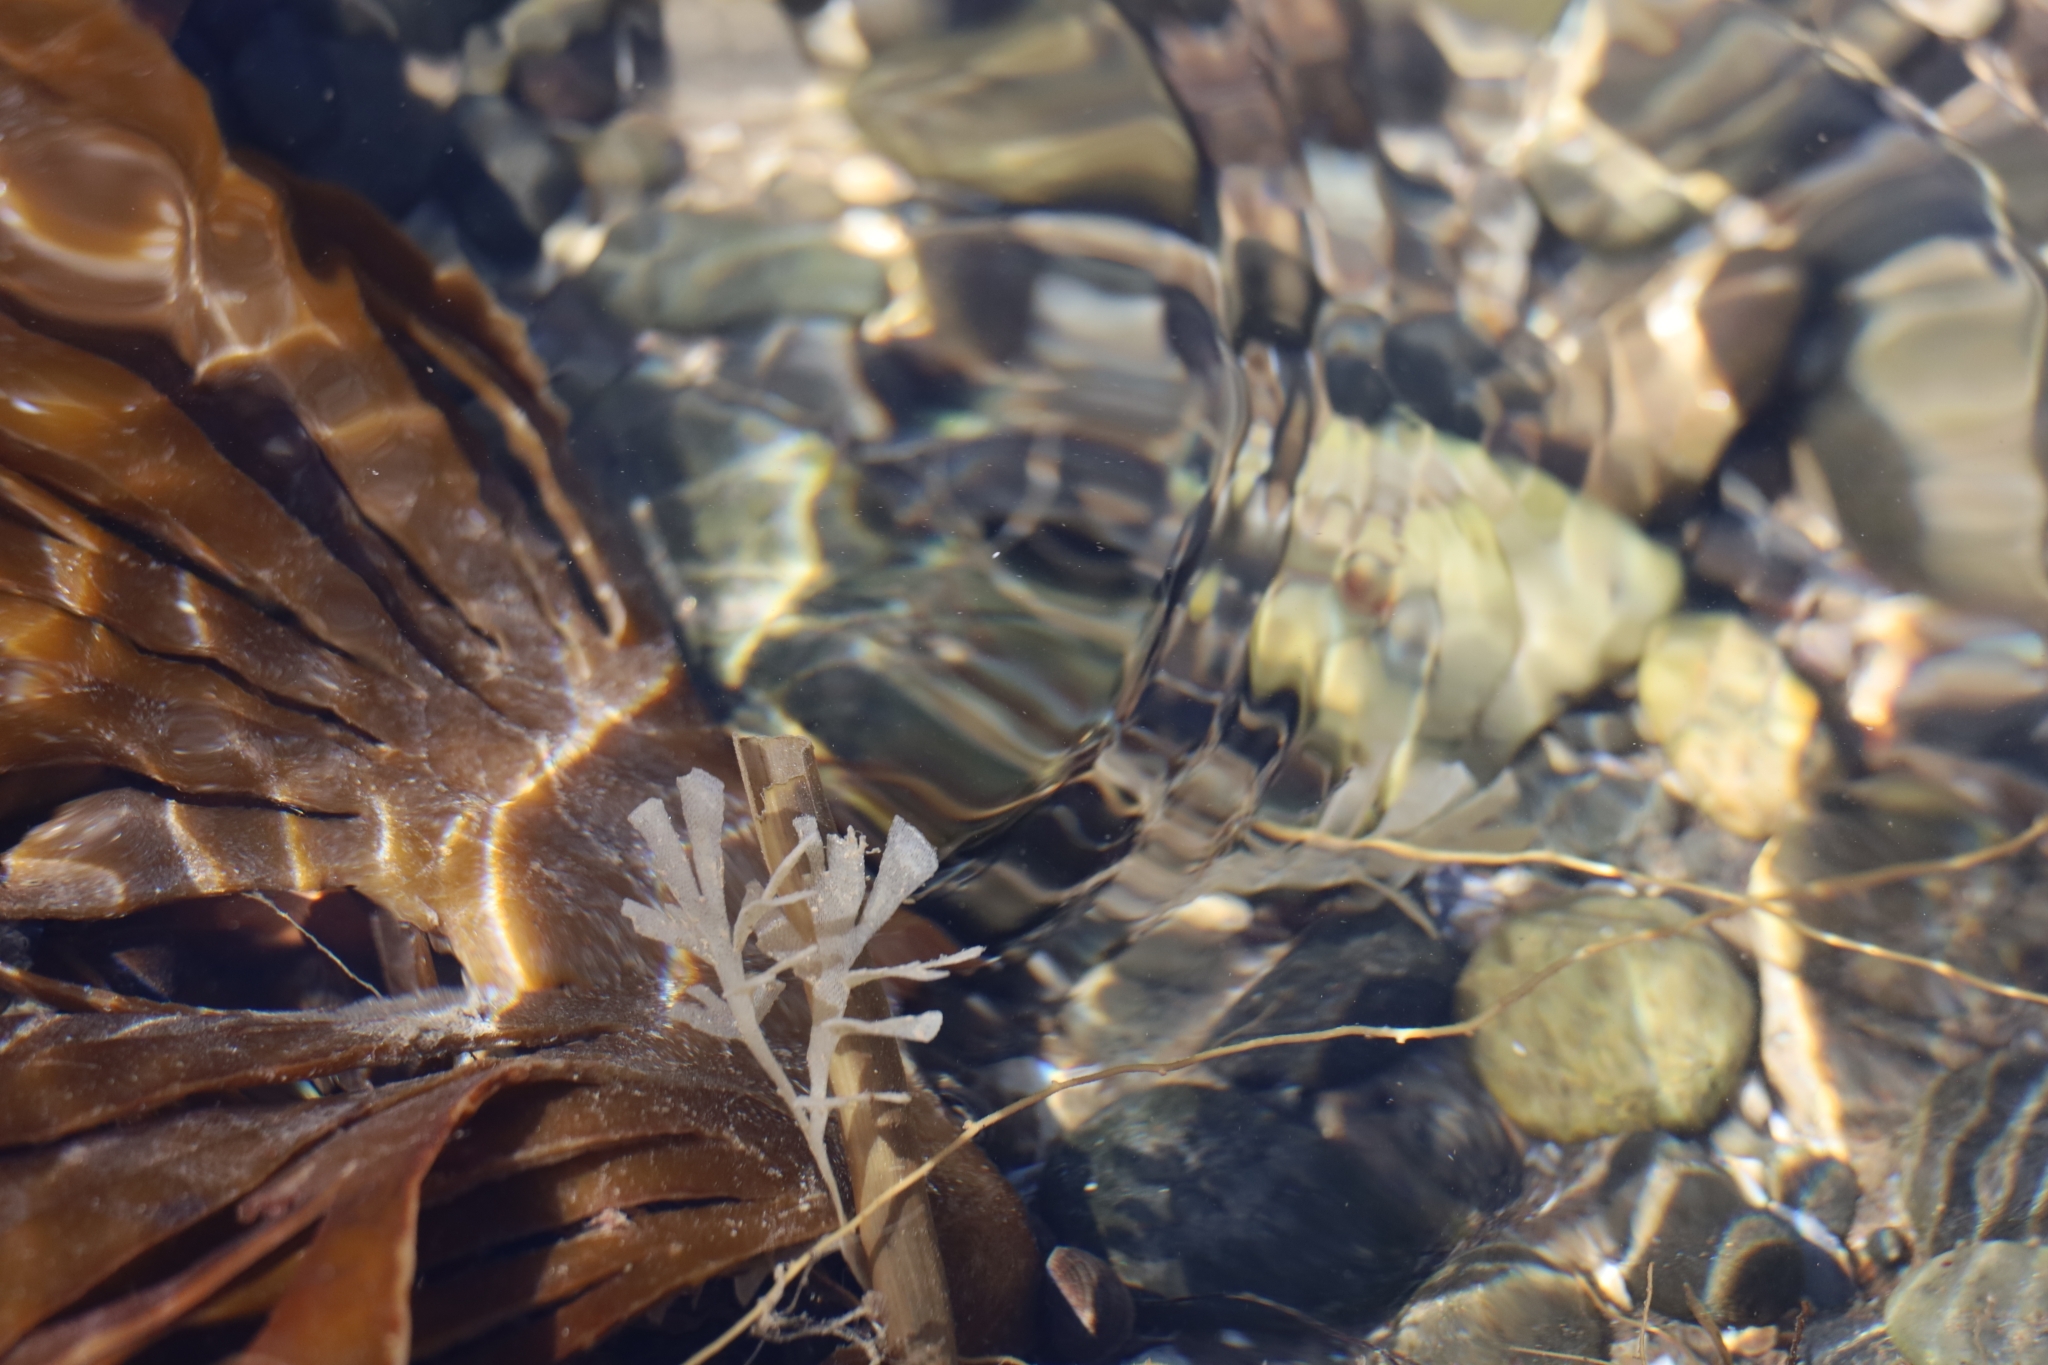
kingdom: Animalia
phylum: Bryozoa
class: Gymnolaemata
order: Cheilostomatida
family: Flustridae
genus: Flustra
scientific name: Flustra foliacea
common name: Hornwrack
